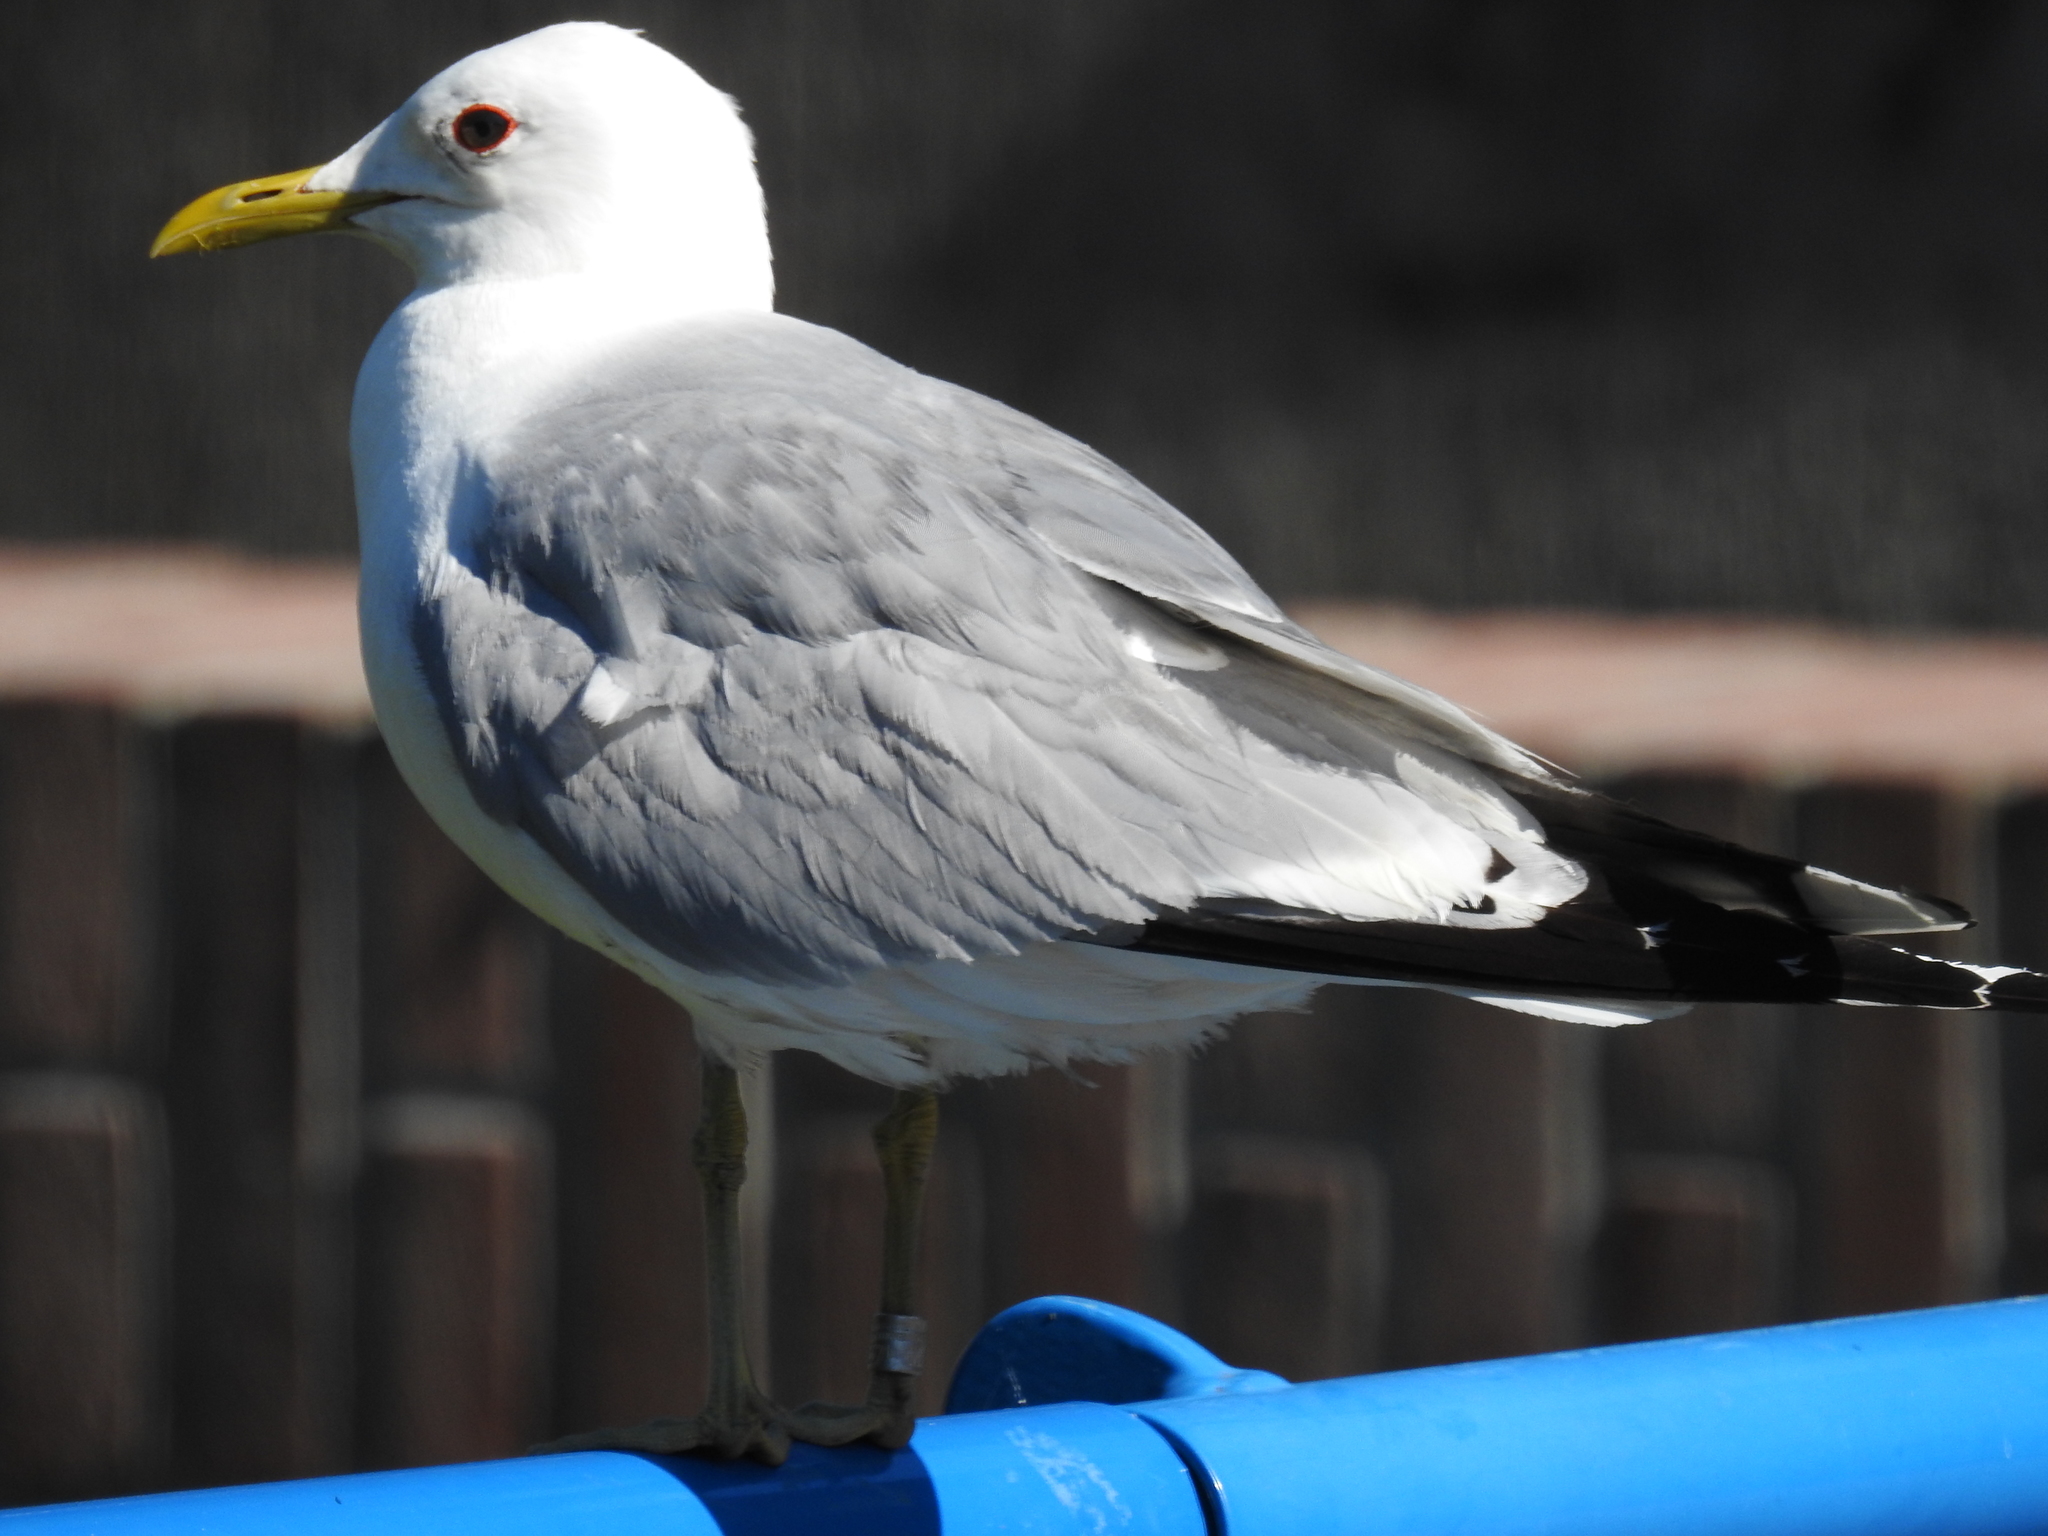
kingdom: Animalia
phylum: Chordata
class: Aves
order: Charadriiformes
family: Laridae
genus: Larus
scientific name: Larus canus
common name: Mew gull
